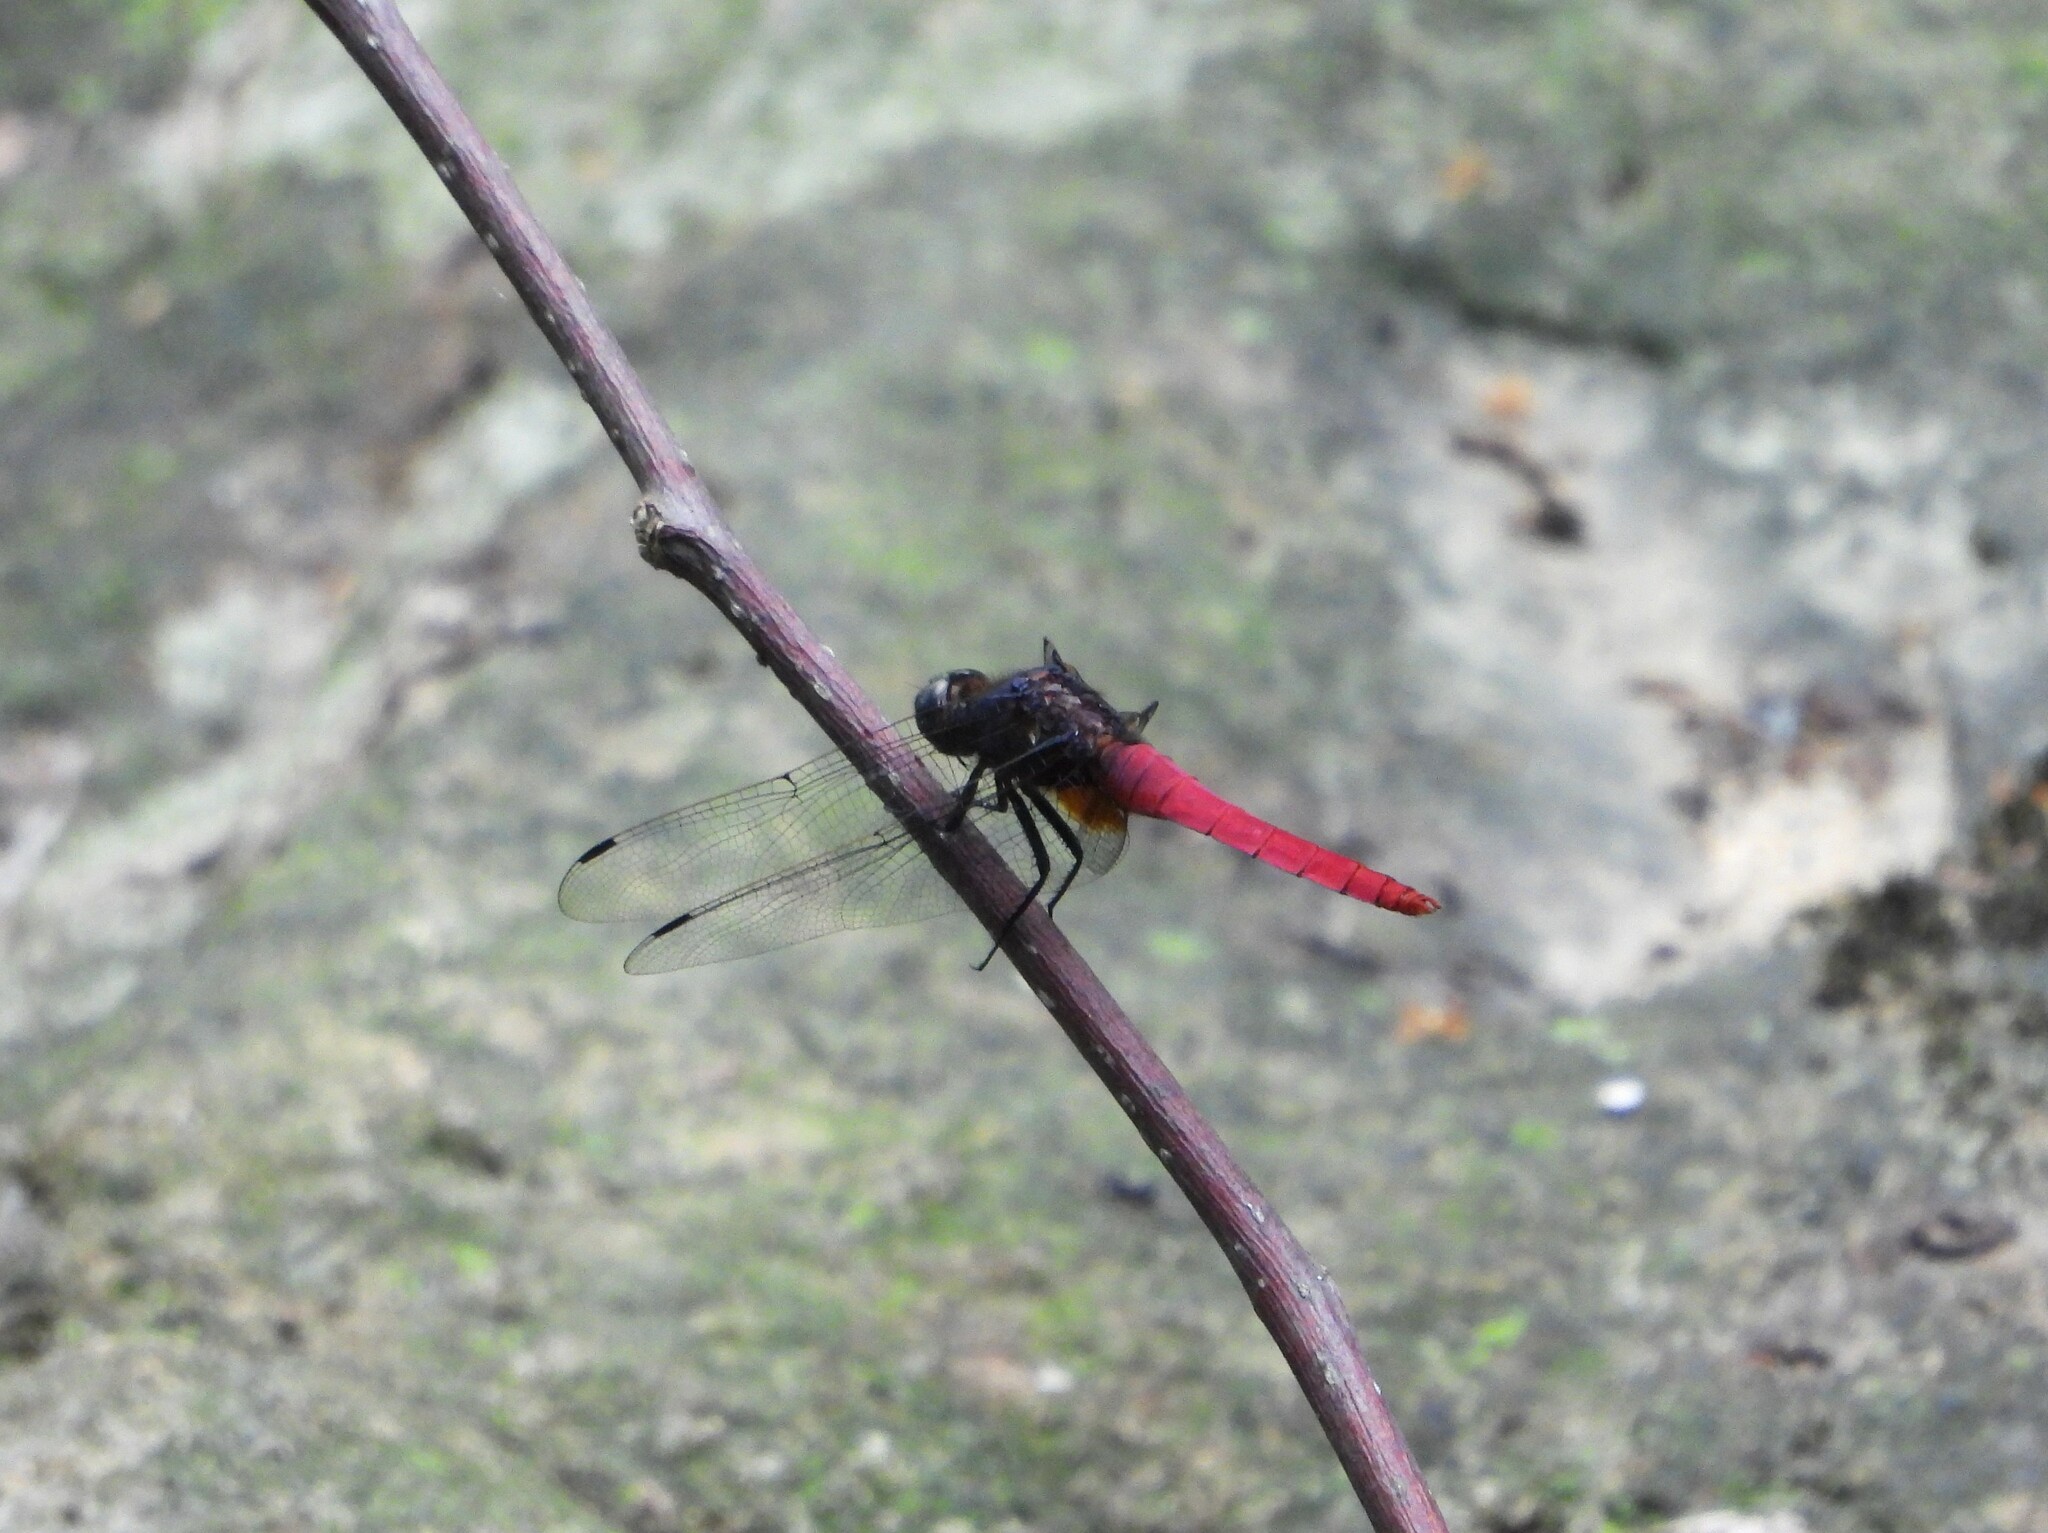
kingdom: Animalia
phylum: Arthropoda
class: Insecta
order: Odonata
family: Libellulidae
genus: Orthetrum
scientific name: Orthetrum pruinosum
